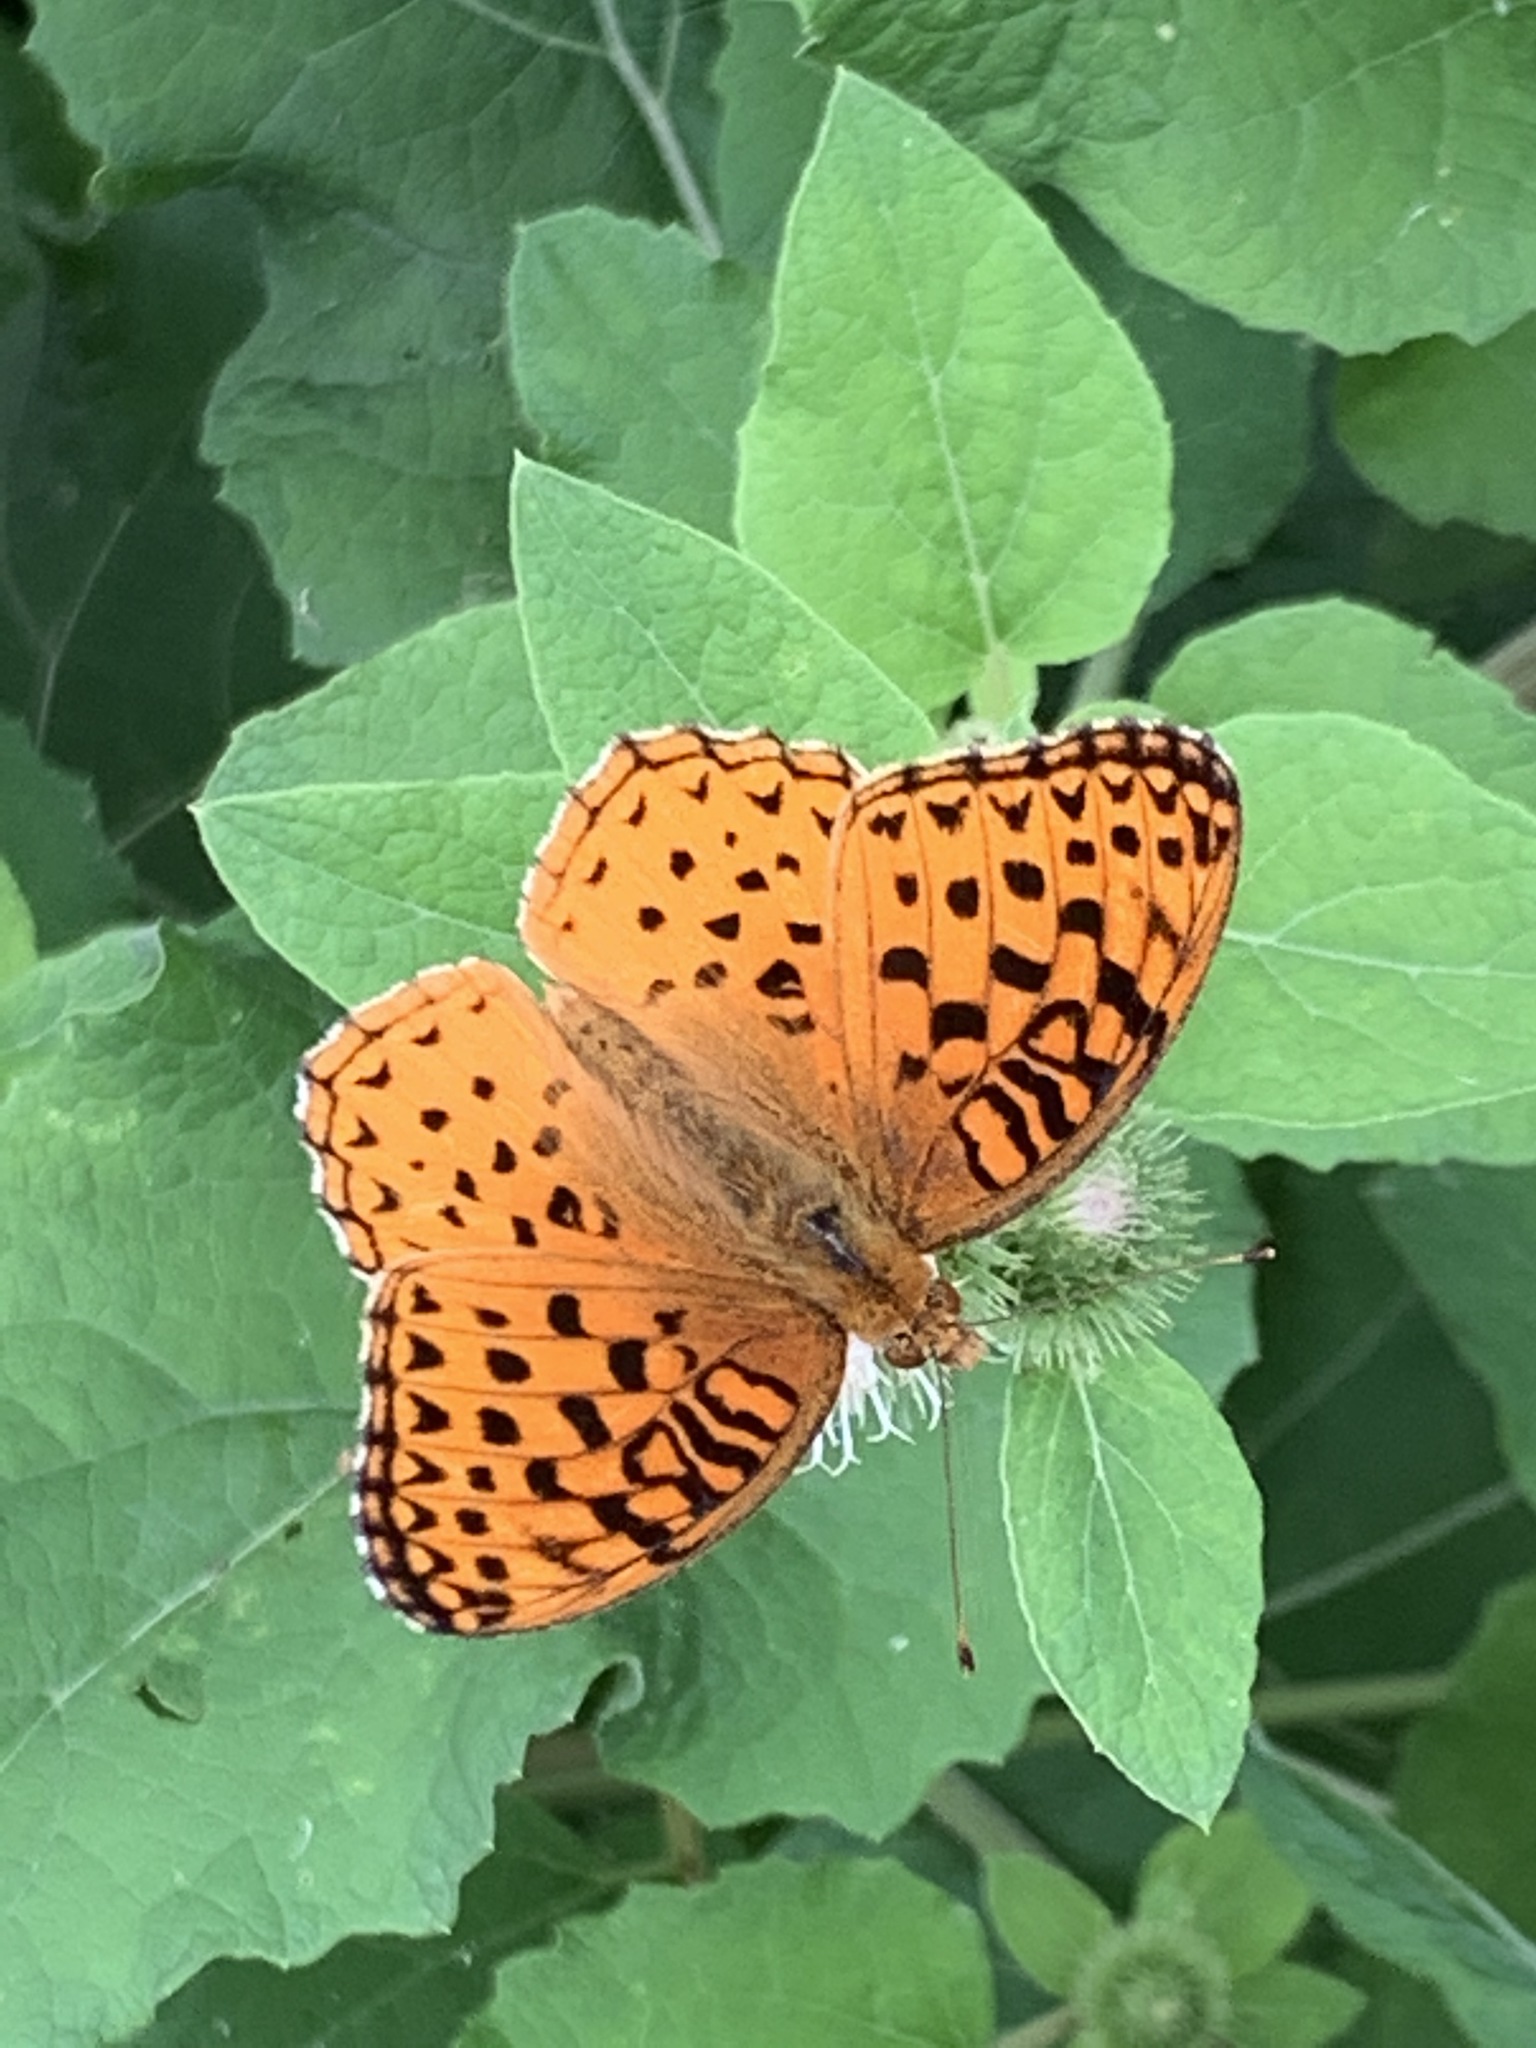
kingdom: Animalia
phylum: Arthropoda
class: Insecta
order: Lepidoptera
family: Nymphalidae
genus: Speyeria
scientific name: Speyeria aphrodite
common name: Aphrodite friitllary
